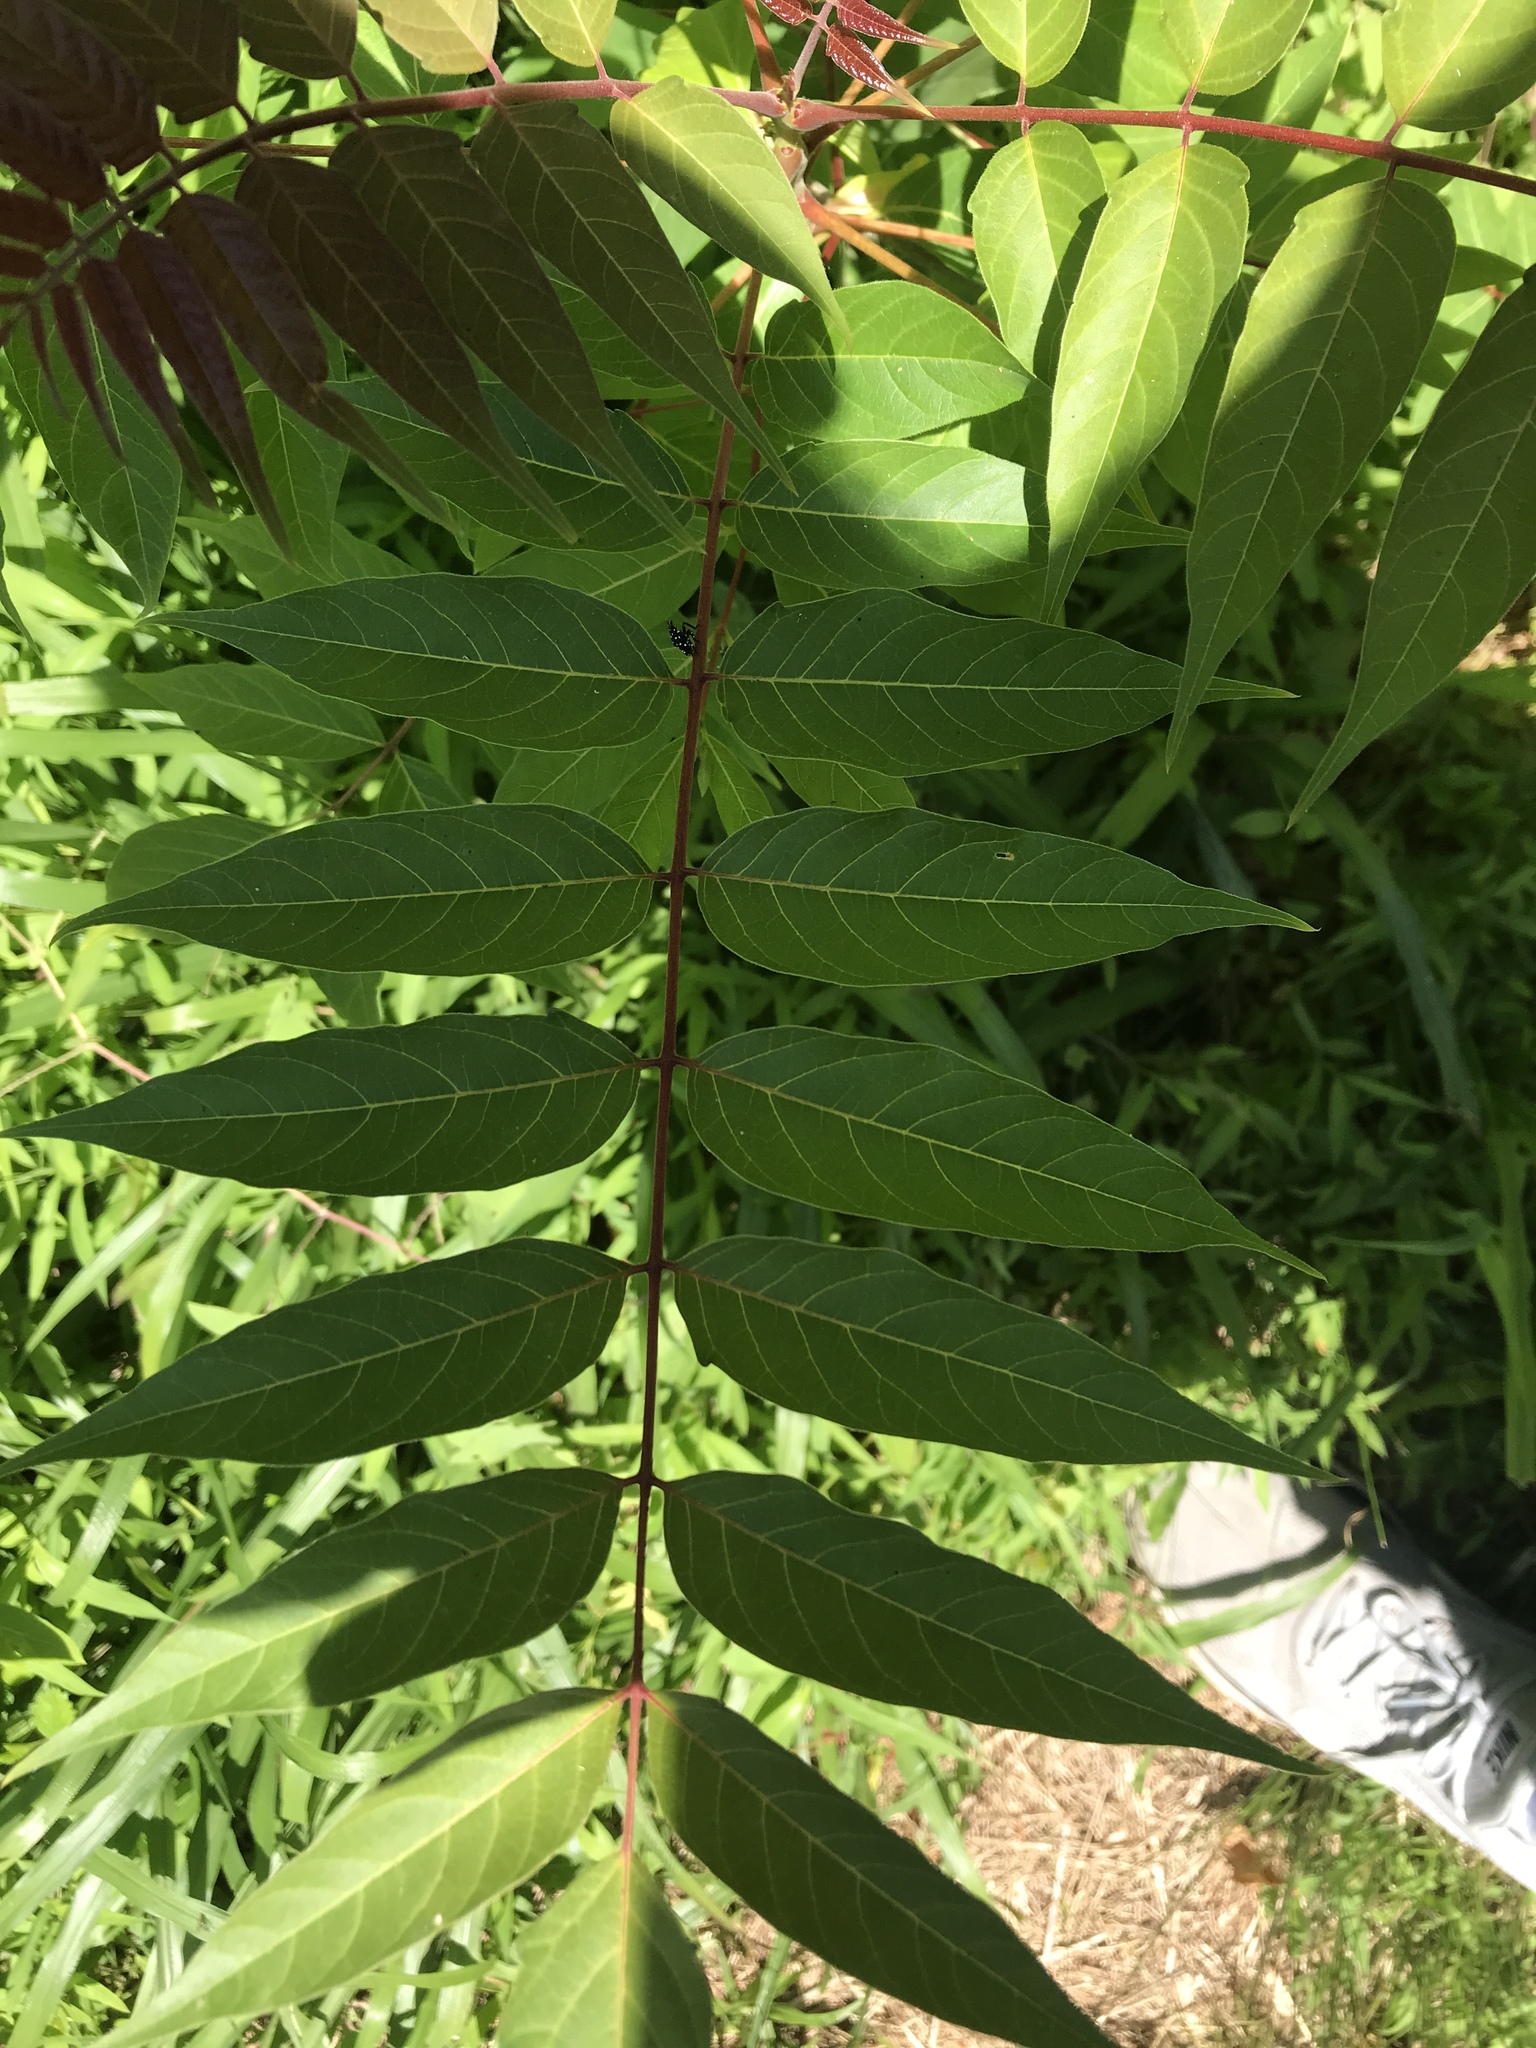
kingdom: Plantae
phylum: Tracheophyta
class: Magnoliopsida
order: Sapindales
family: Simaroubaceae
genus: Ailanthus
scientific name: Ailanthus altissima
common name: Tree-of-heaven
